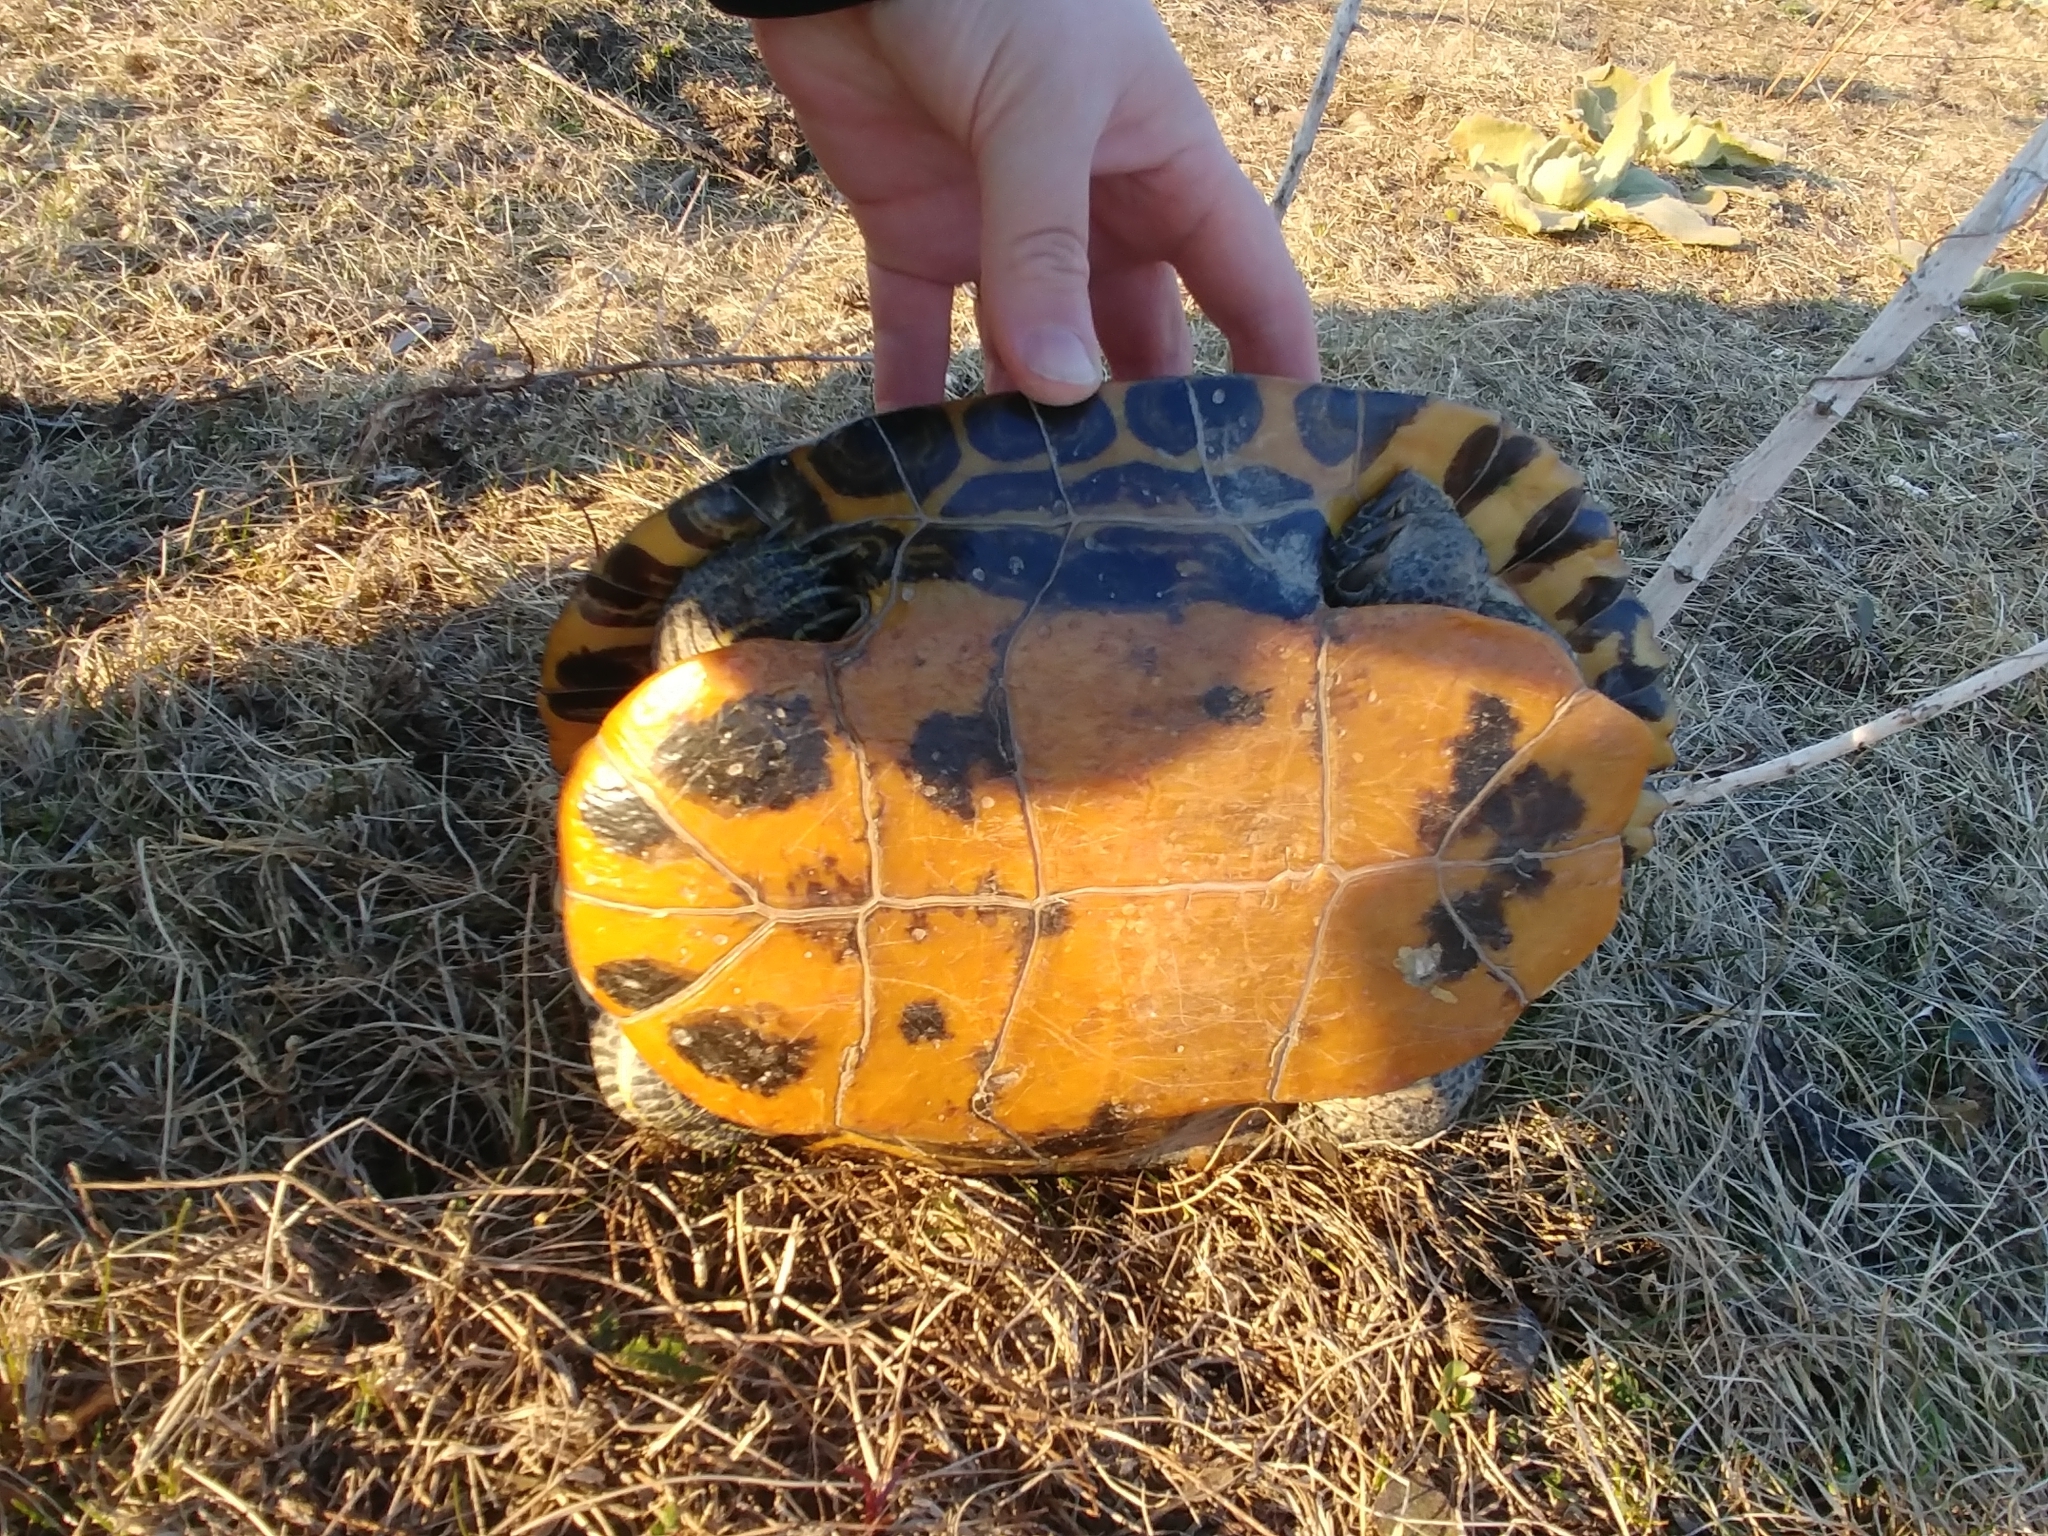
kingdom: Animalia
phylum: Chordata
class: Testudines
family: Emydidae
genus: Trachemys
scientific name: Trachemys scripta
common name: Slider
